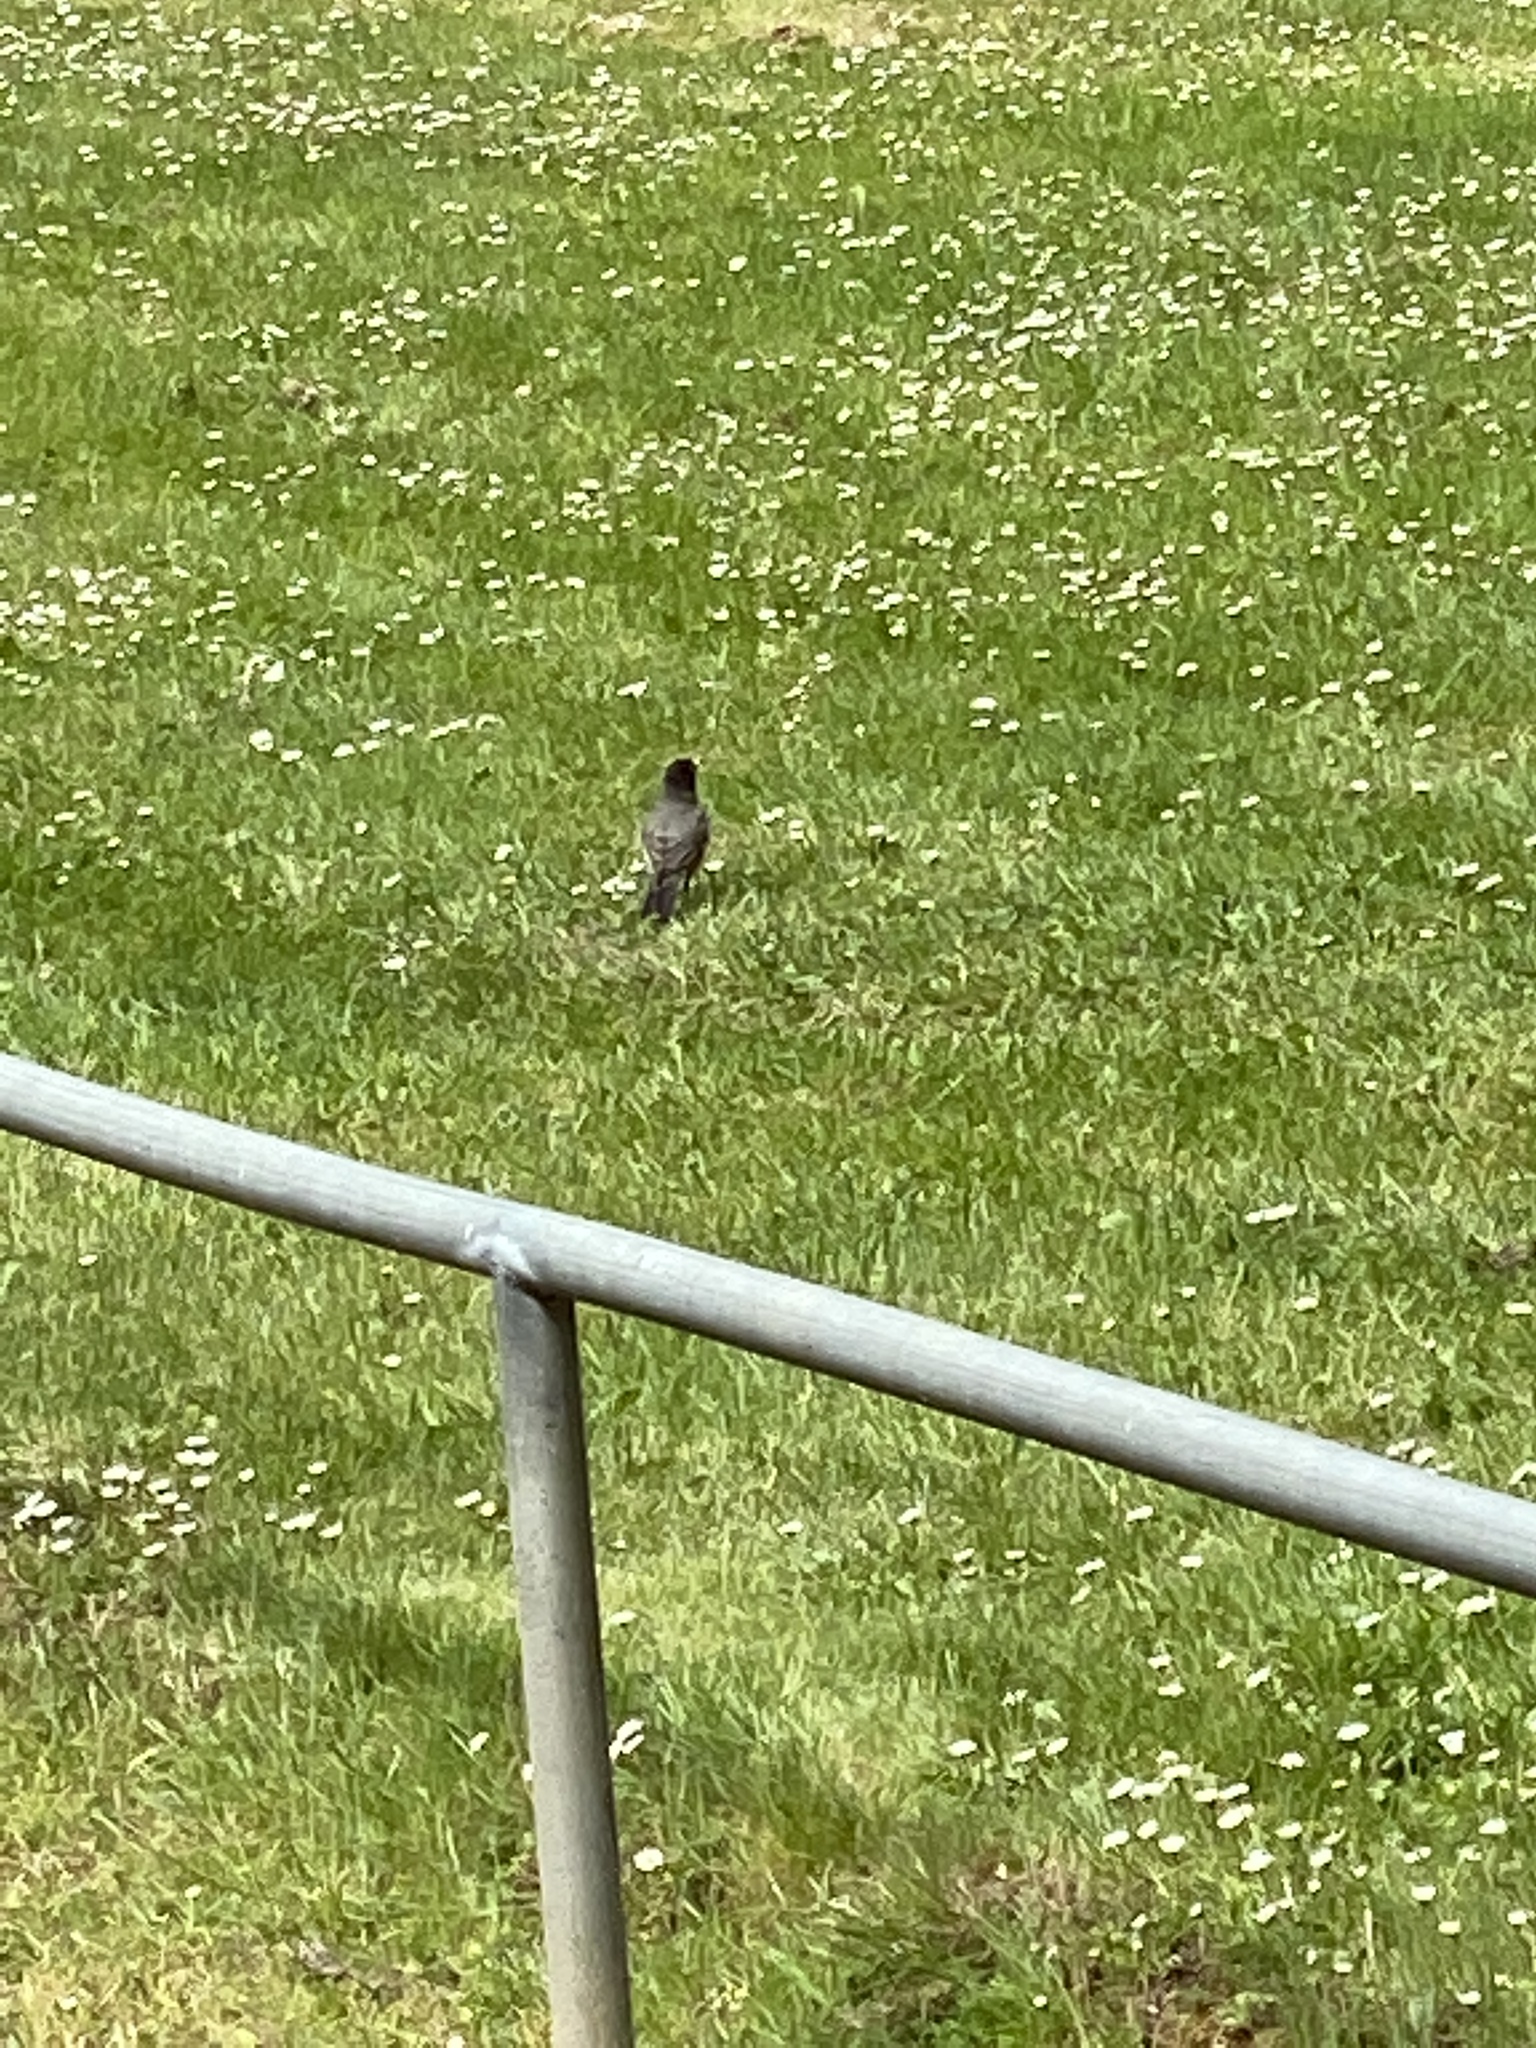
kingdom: Animalia
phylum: Chordata
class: Aves
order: Passeriformes
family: Turdidae
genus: Turdus
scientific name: Turdus migratorius
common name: American robin
